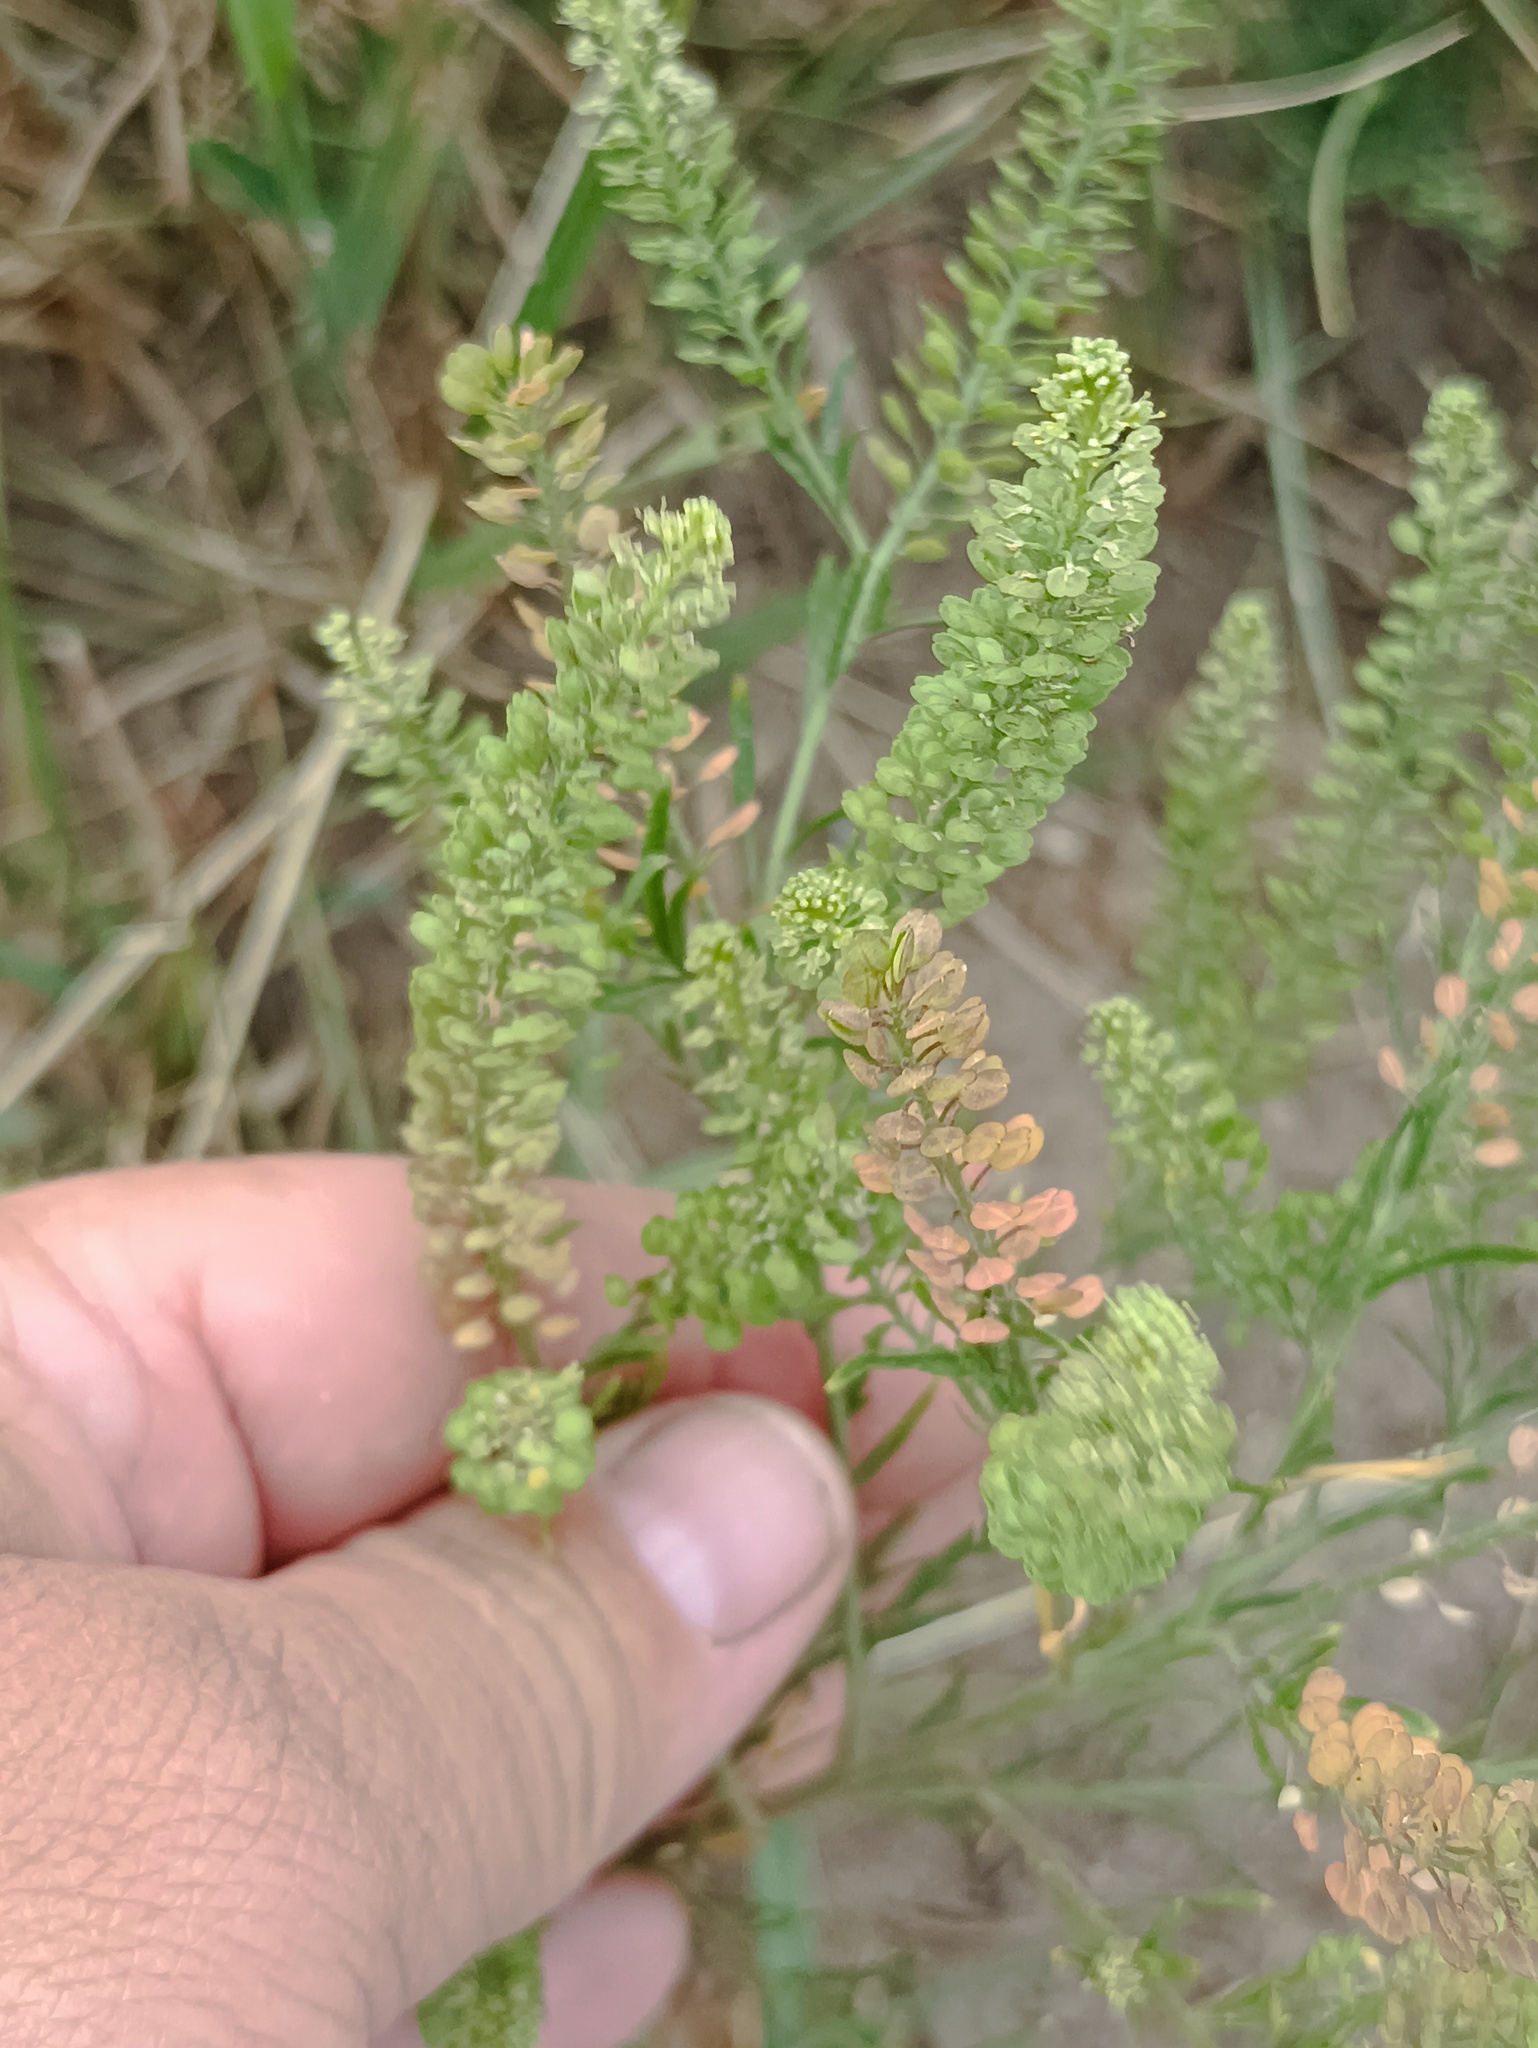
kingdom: Plantae
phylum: Tracheophyta
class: Magnoliopsida
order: Brassicales
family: Brassicaceae
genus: Lepidium
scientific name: Lepidium densiflorum
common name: Miner's pepperwort
